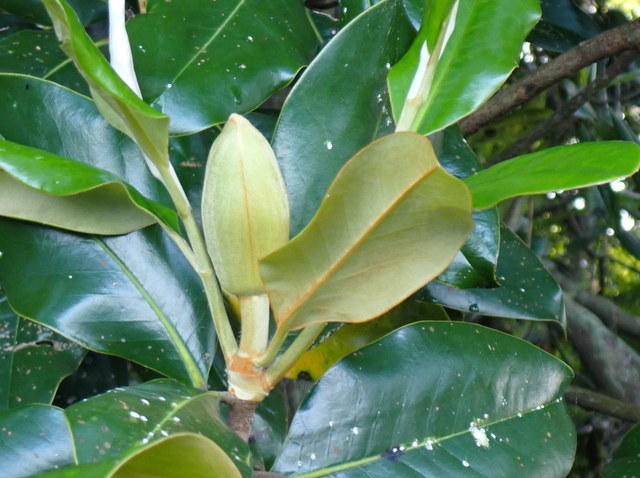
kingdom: Plantae
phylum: Tracheophyta
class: Magnoliopsida
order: Magnoliales
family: Magnoliaceae
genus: Magnolia
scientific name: Magnolia grandiflora
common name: Southern magnolia
